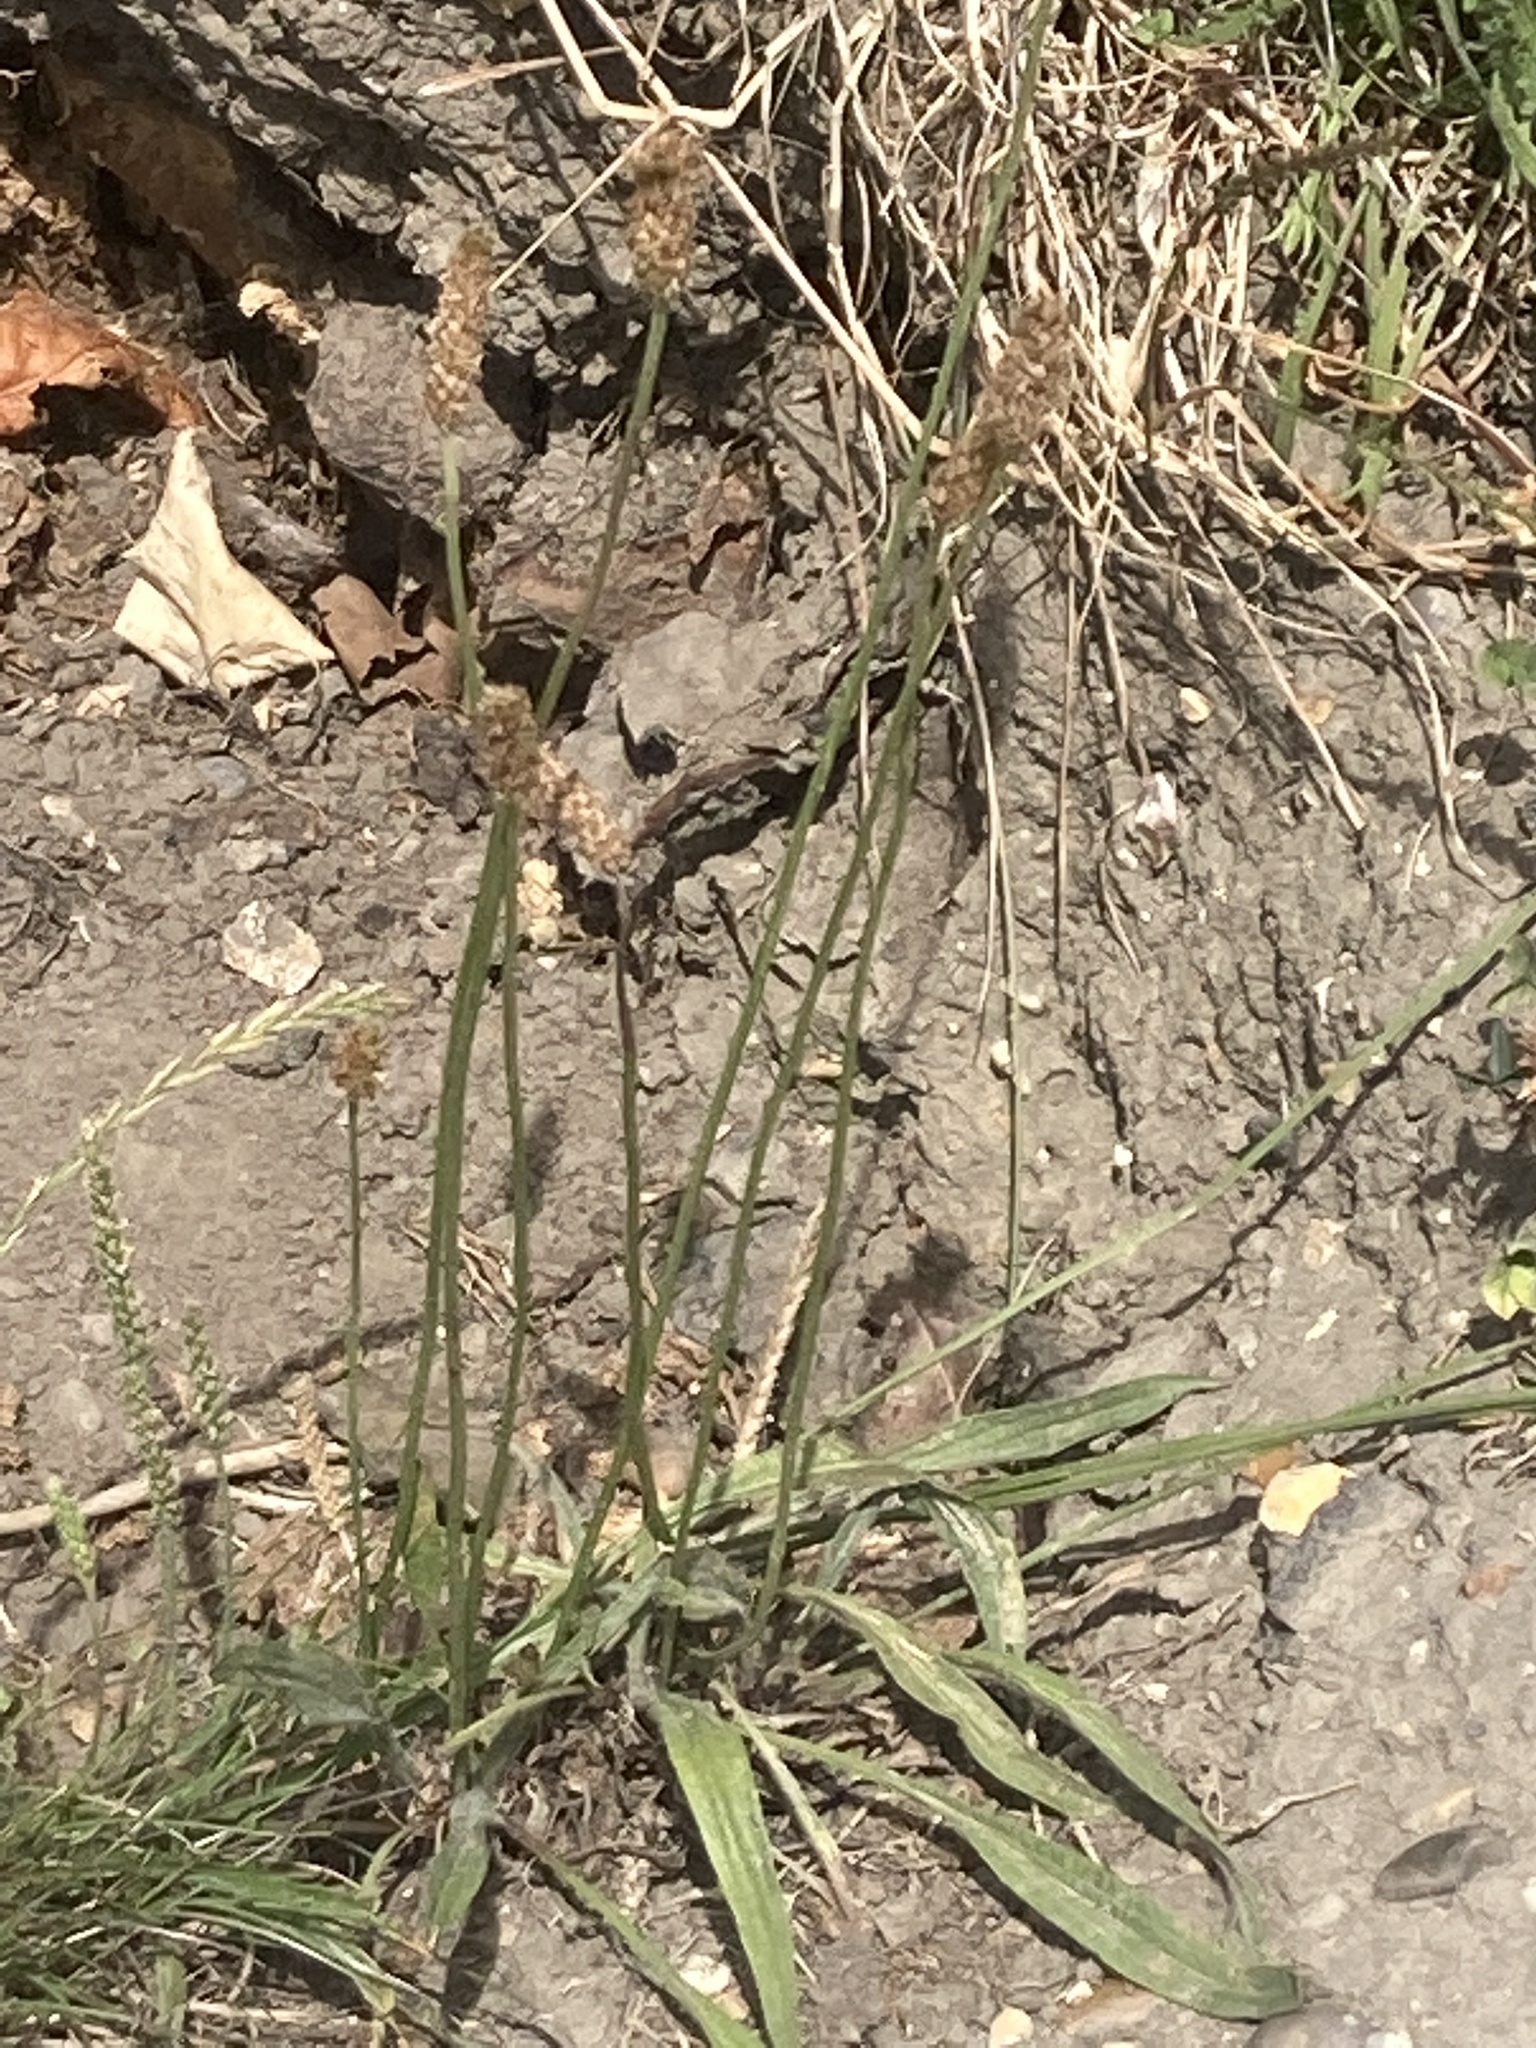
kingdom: Plantae
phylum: Tracheophyta
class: Magnoliopsida
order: Lamiales
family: Plantaginaceae
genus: Plantago
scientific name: Plantago lanceolata
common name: Ribwort plantain
